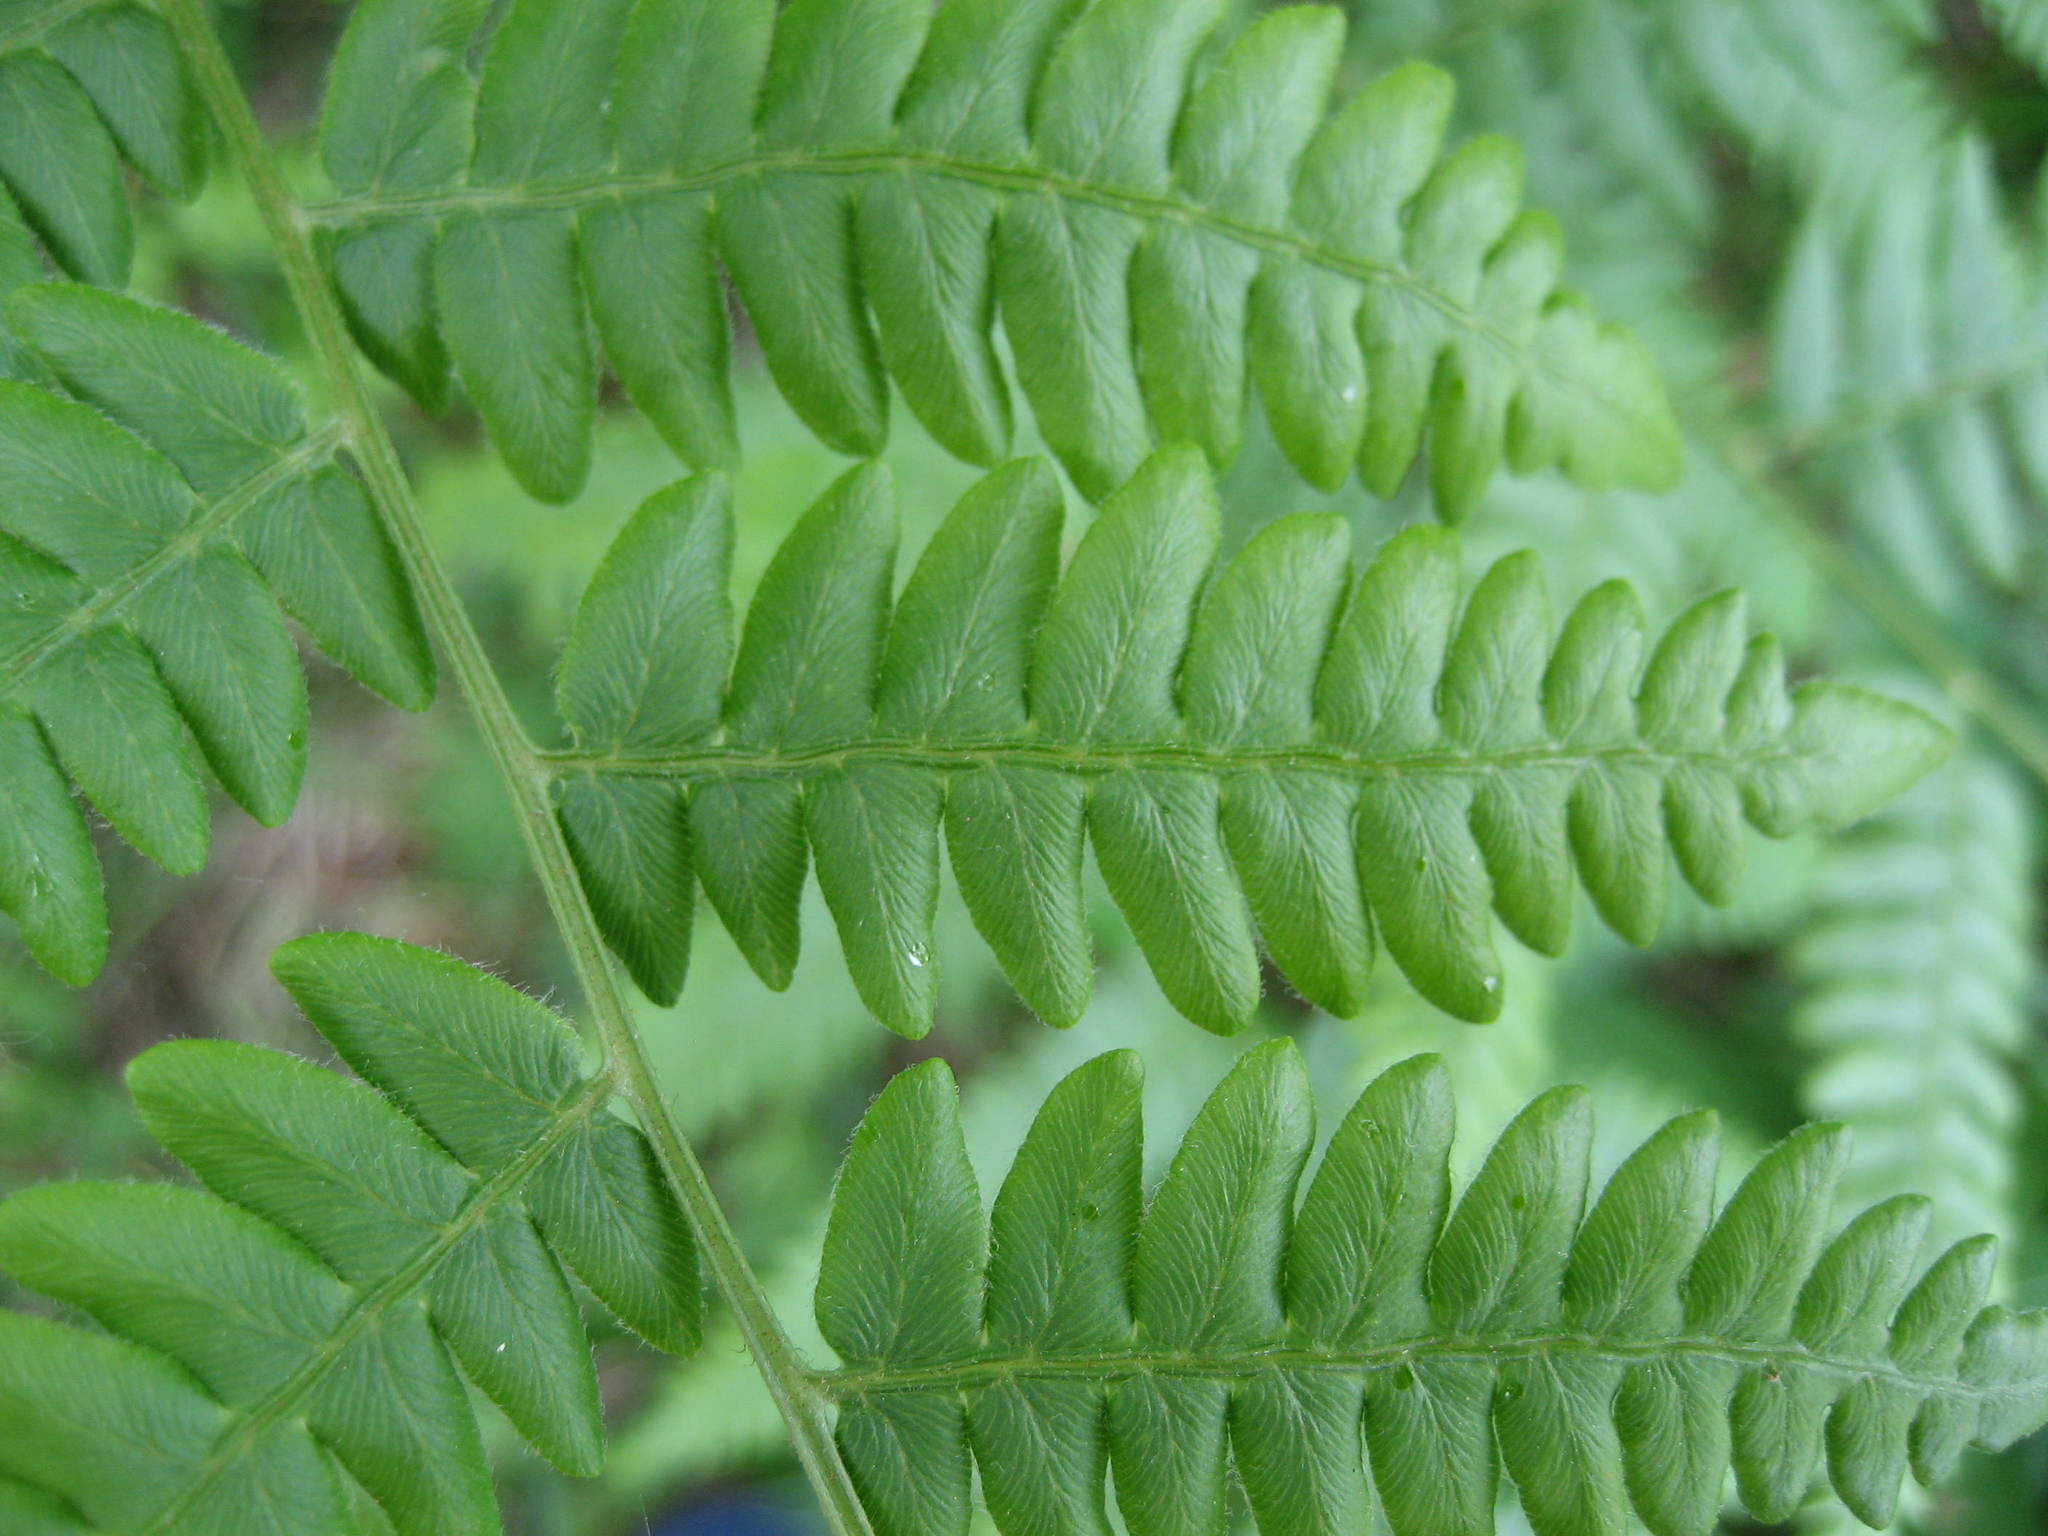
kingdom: Plantae
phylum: Tracheophyta
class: Polypodiopsida
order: Polypodiales
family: Dennstaedtiaceae
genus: Pteridium
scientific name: Pteridium aquilinum
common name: Bracken
